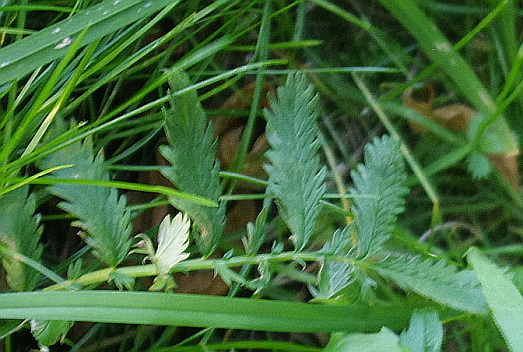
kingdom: Plantae
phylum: Tracheophyta
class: Magnoliopsida
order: Rosales
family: Rosaceae
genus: Argentina
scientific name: Argentina anserina
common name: Common silverweed
